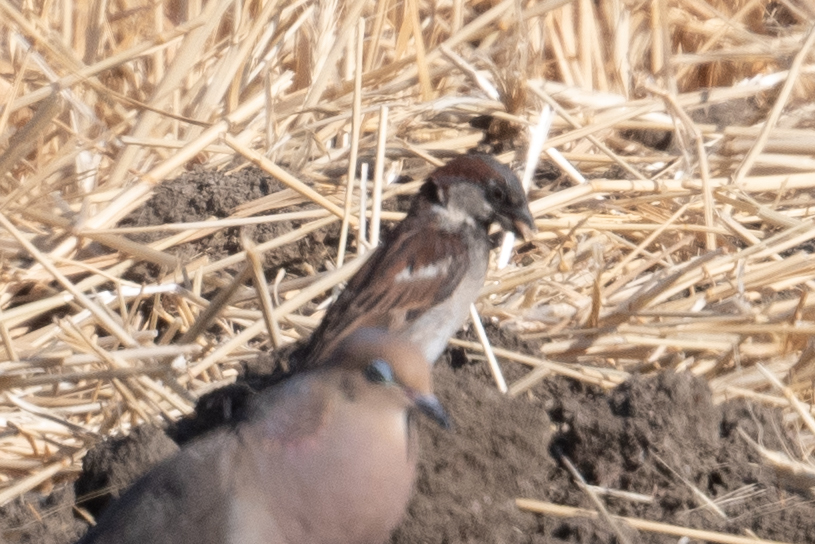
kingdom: Animalia
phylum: Chordata
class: Aves
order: Passeriformes
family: Passeridae
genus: Passer
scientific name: Passer domesticus
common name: House sparrow
